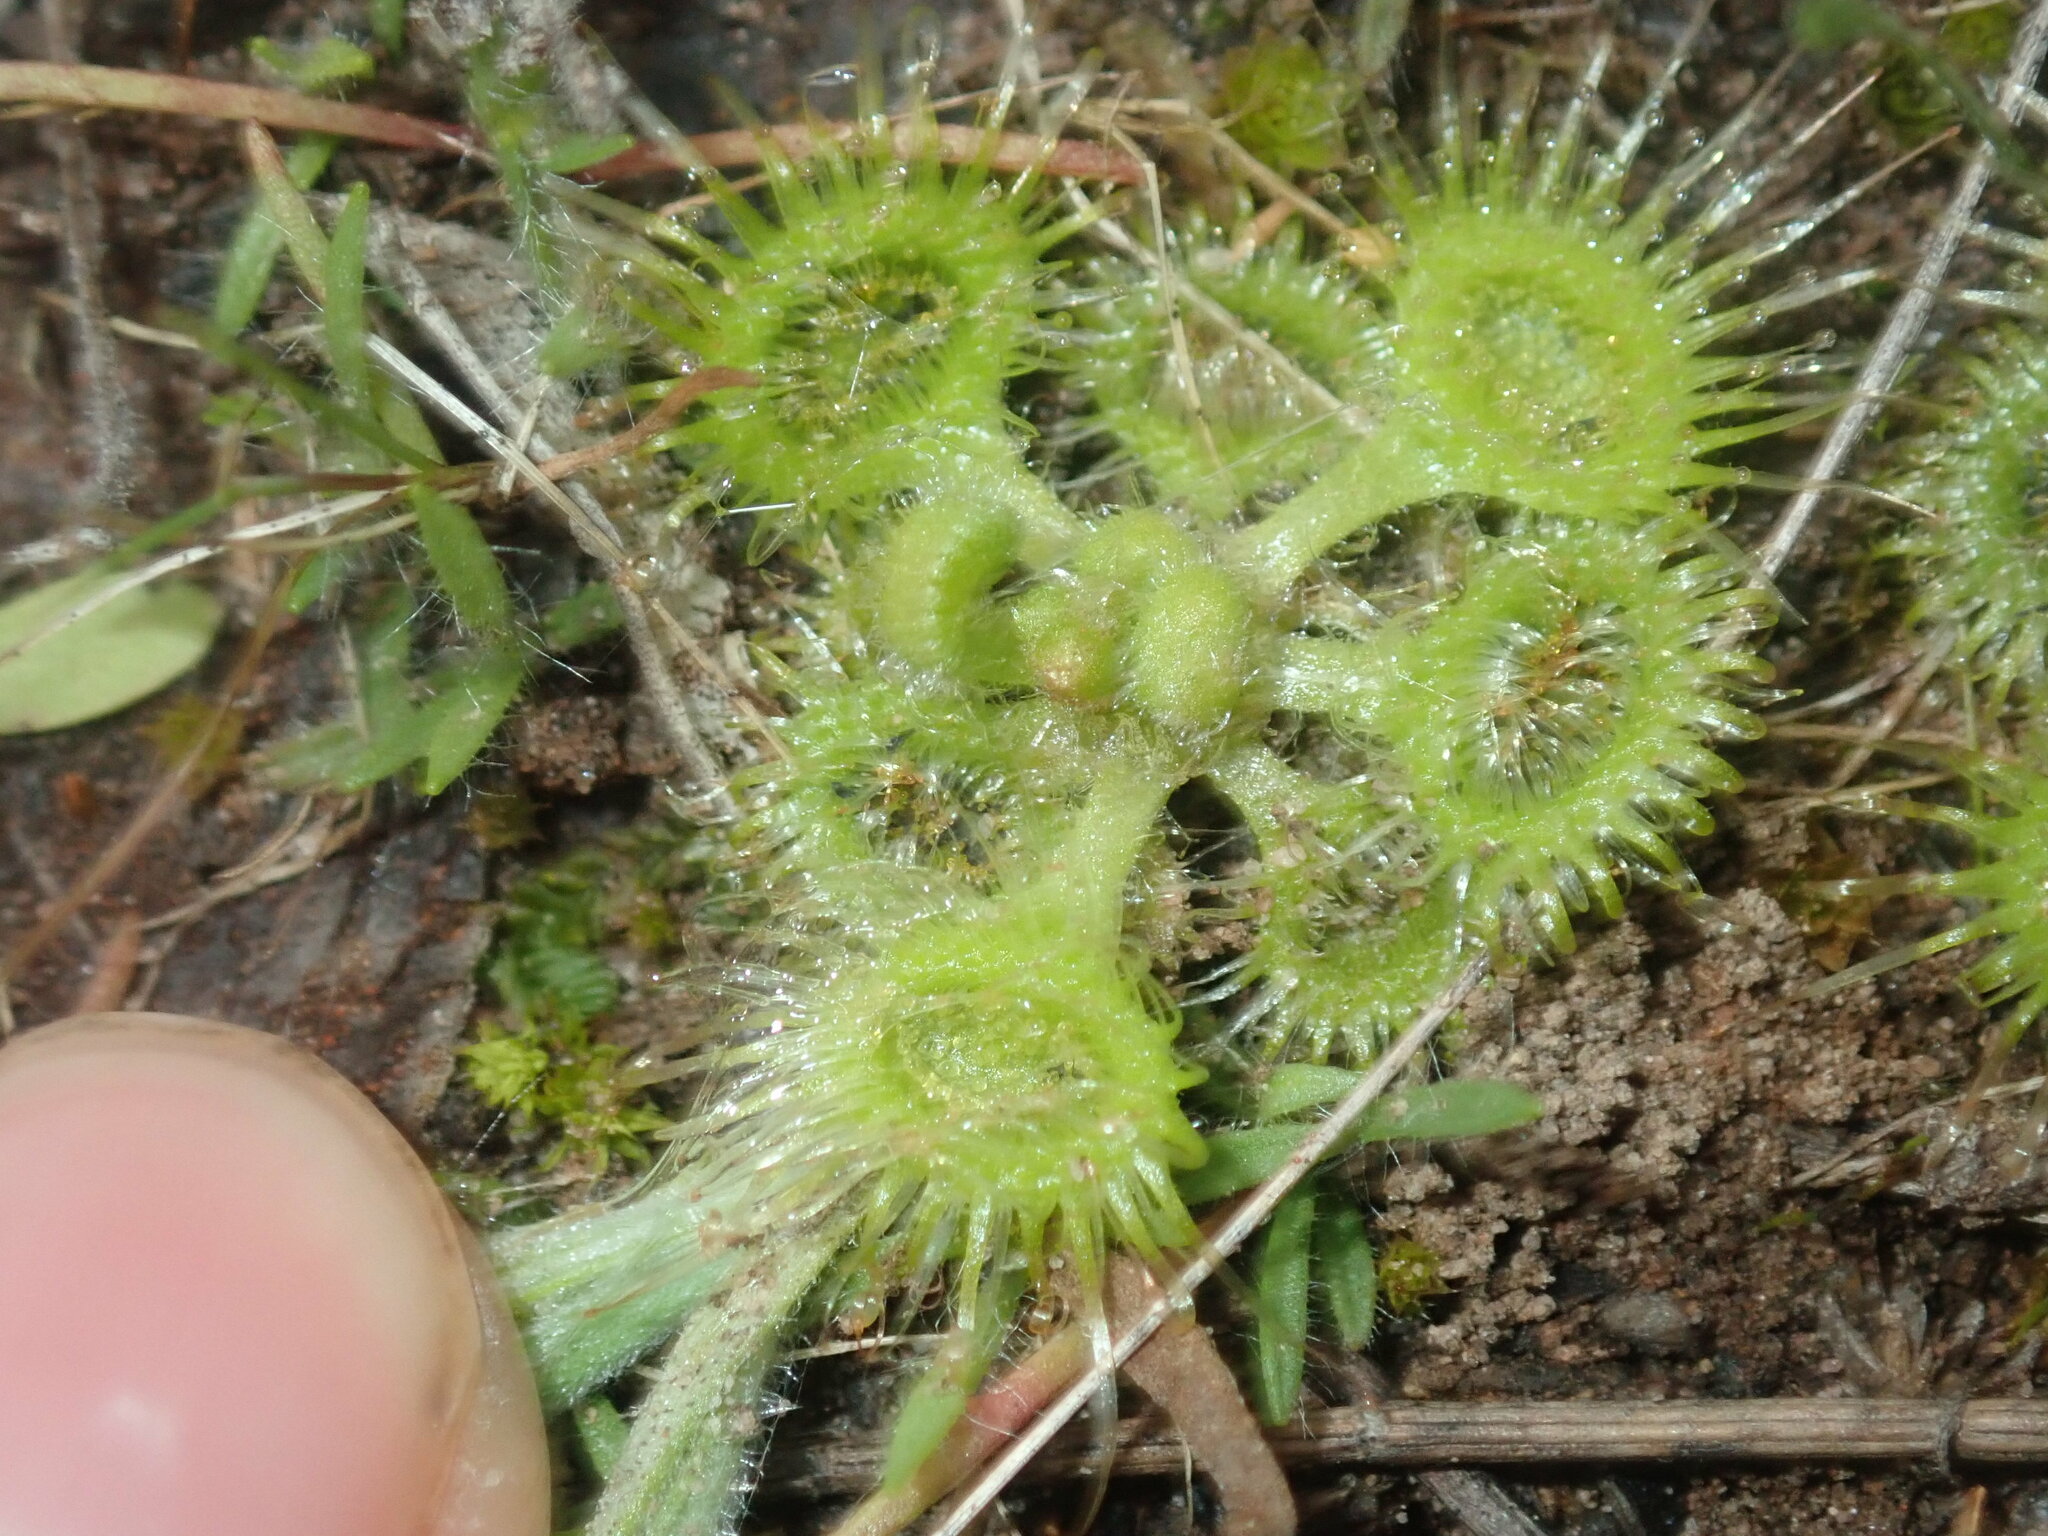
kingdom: Plantae
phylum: Tracheophyta
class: Magnoliopsida
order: Caryophyllales
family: Droseraceae
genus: Drosera
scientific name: Drosera glanduligera
